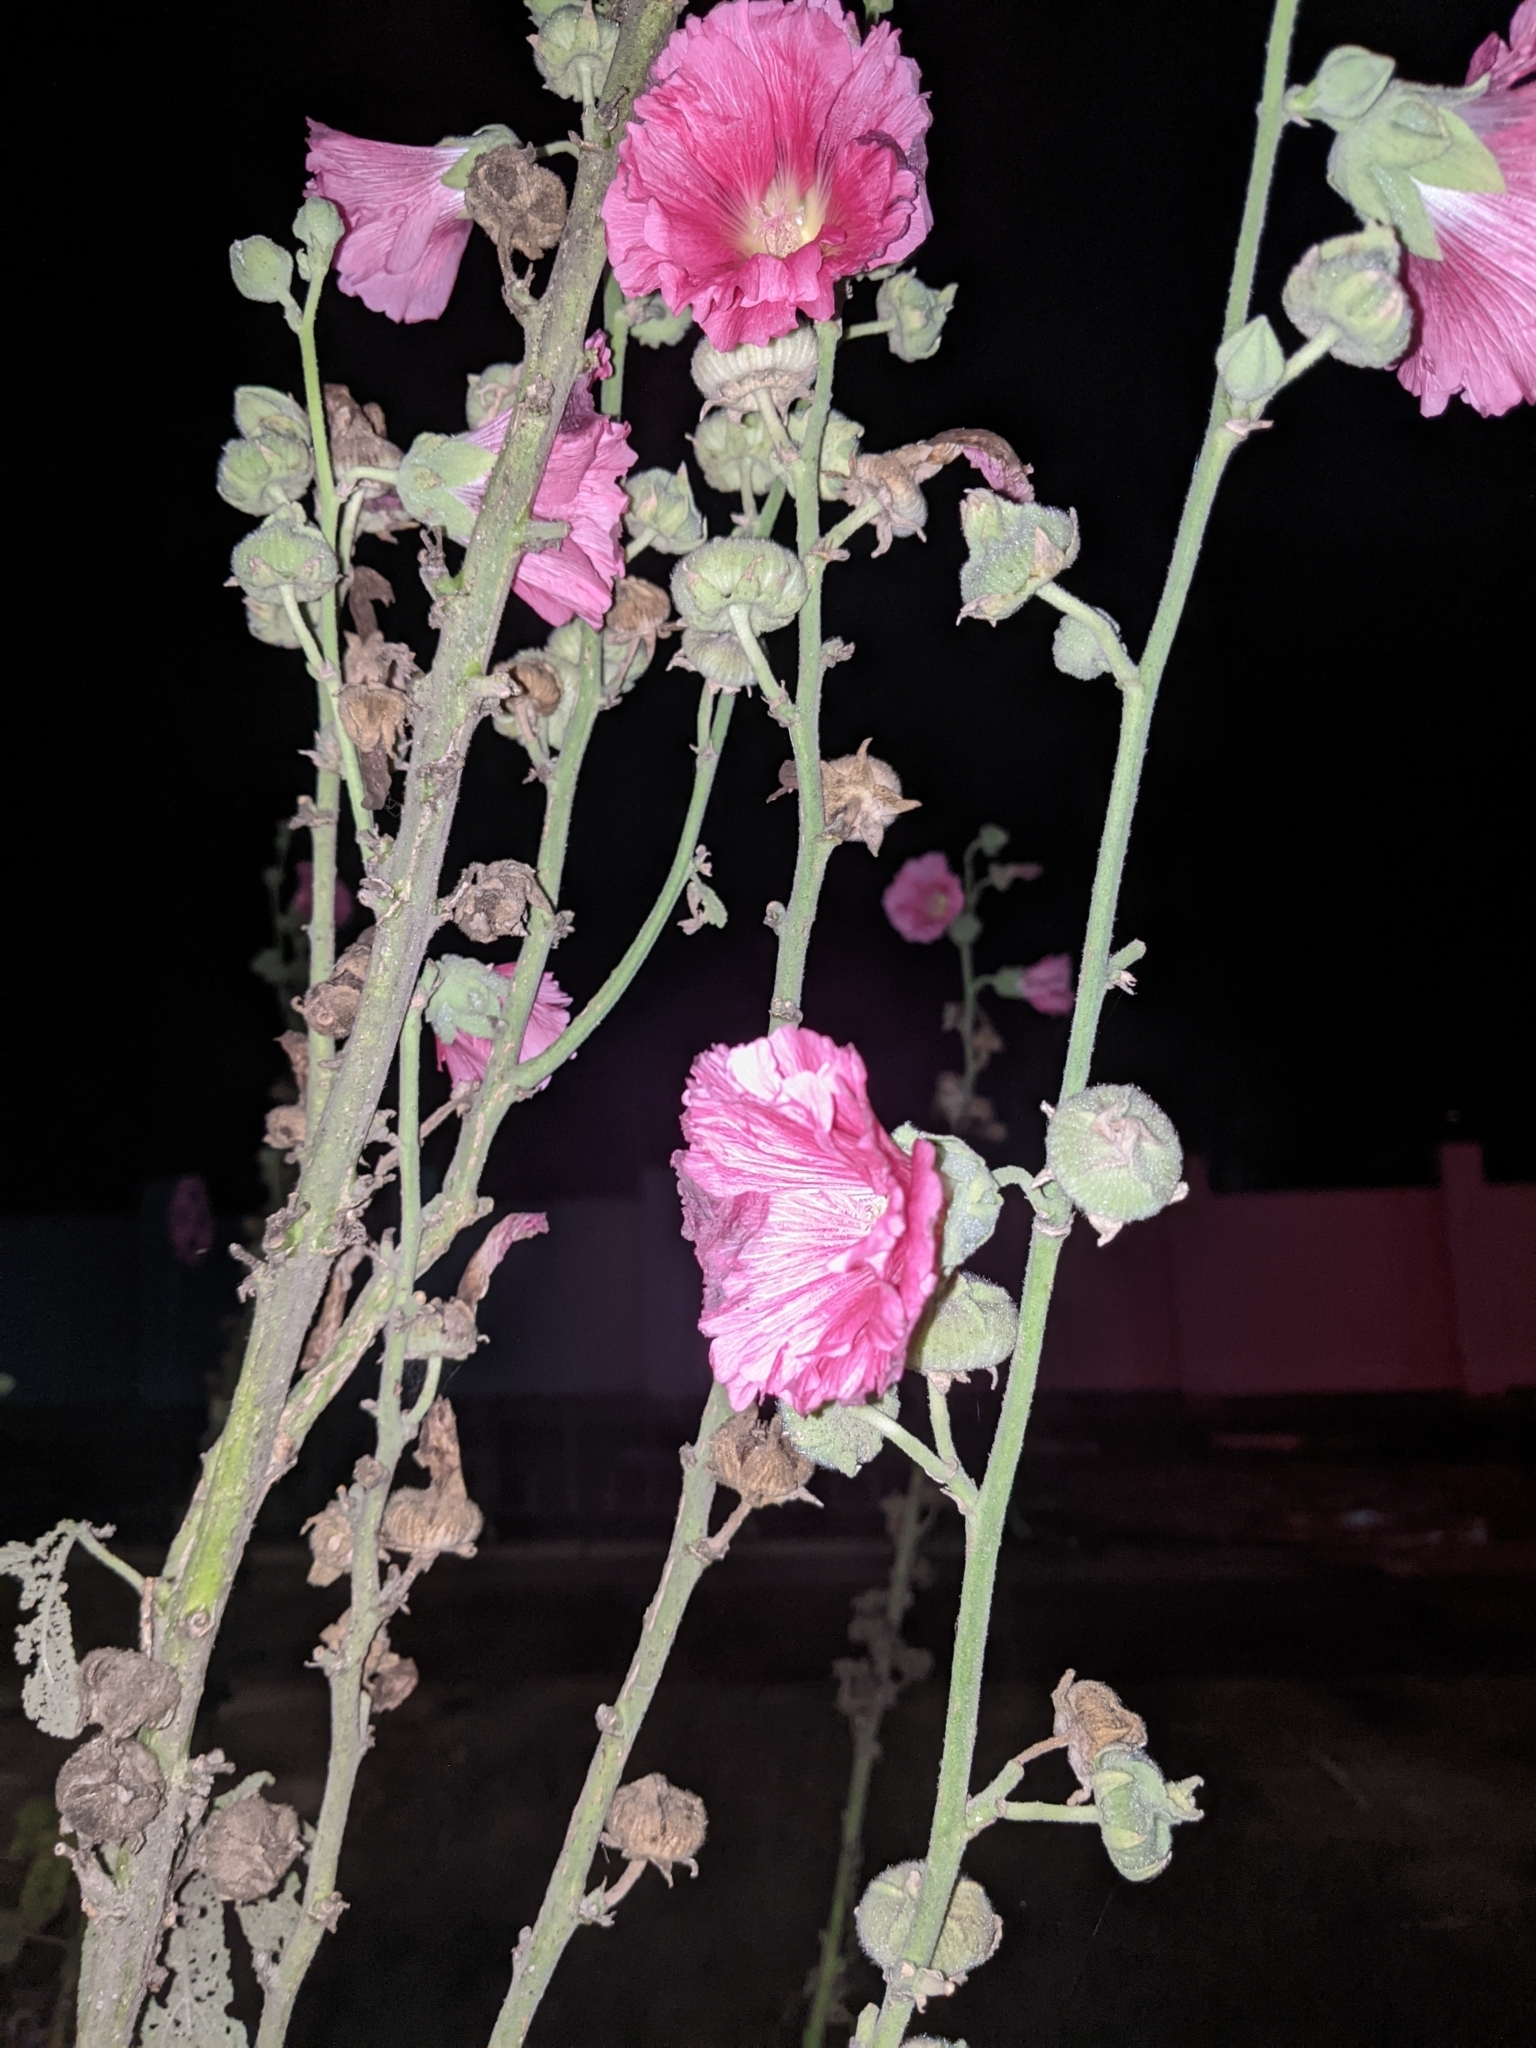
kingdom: Plantae
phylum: Tracheophyta
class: Magnoliopsida
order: Malvales
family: Malvaceae
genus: Alcea
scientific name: Alcea rosea
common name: Hollyhock
